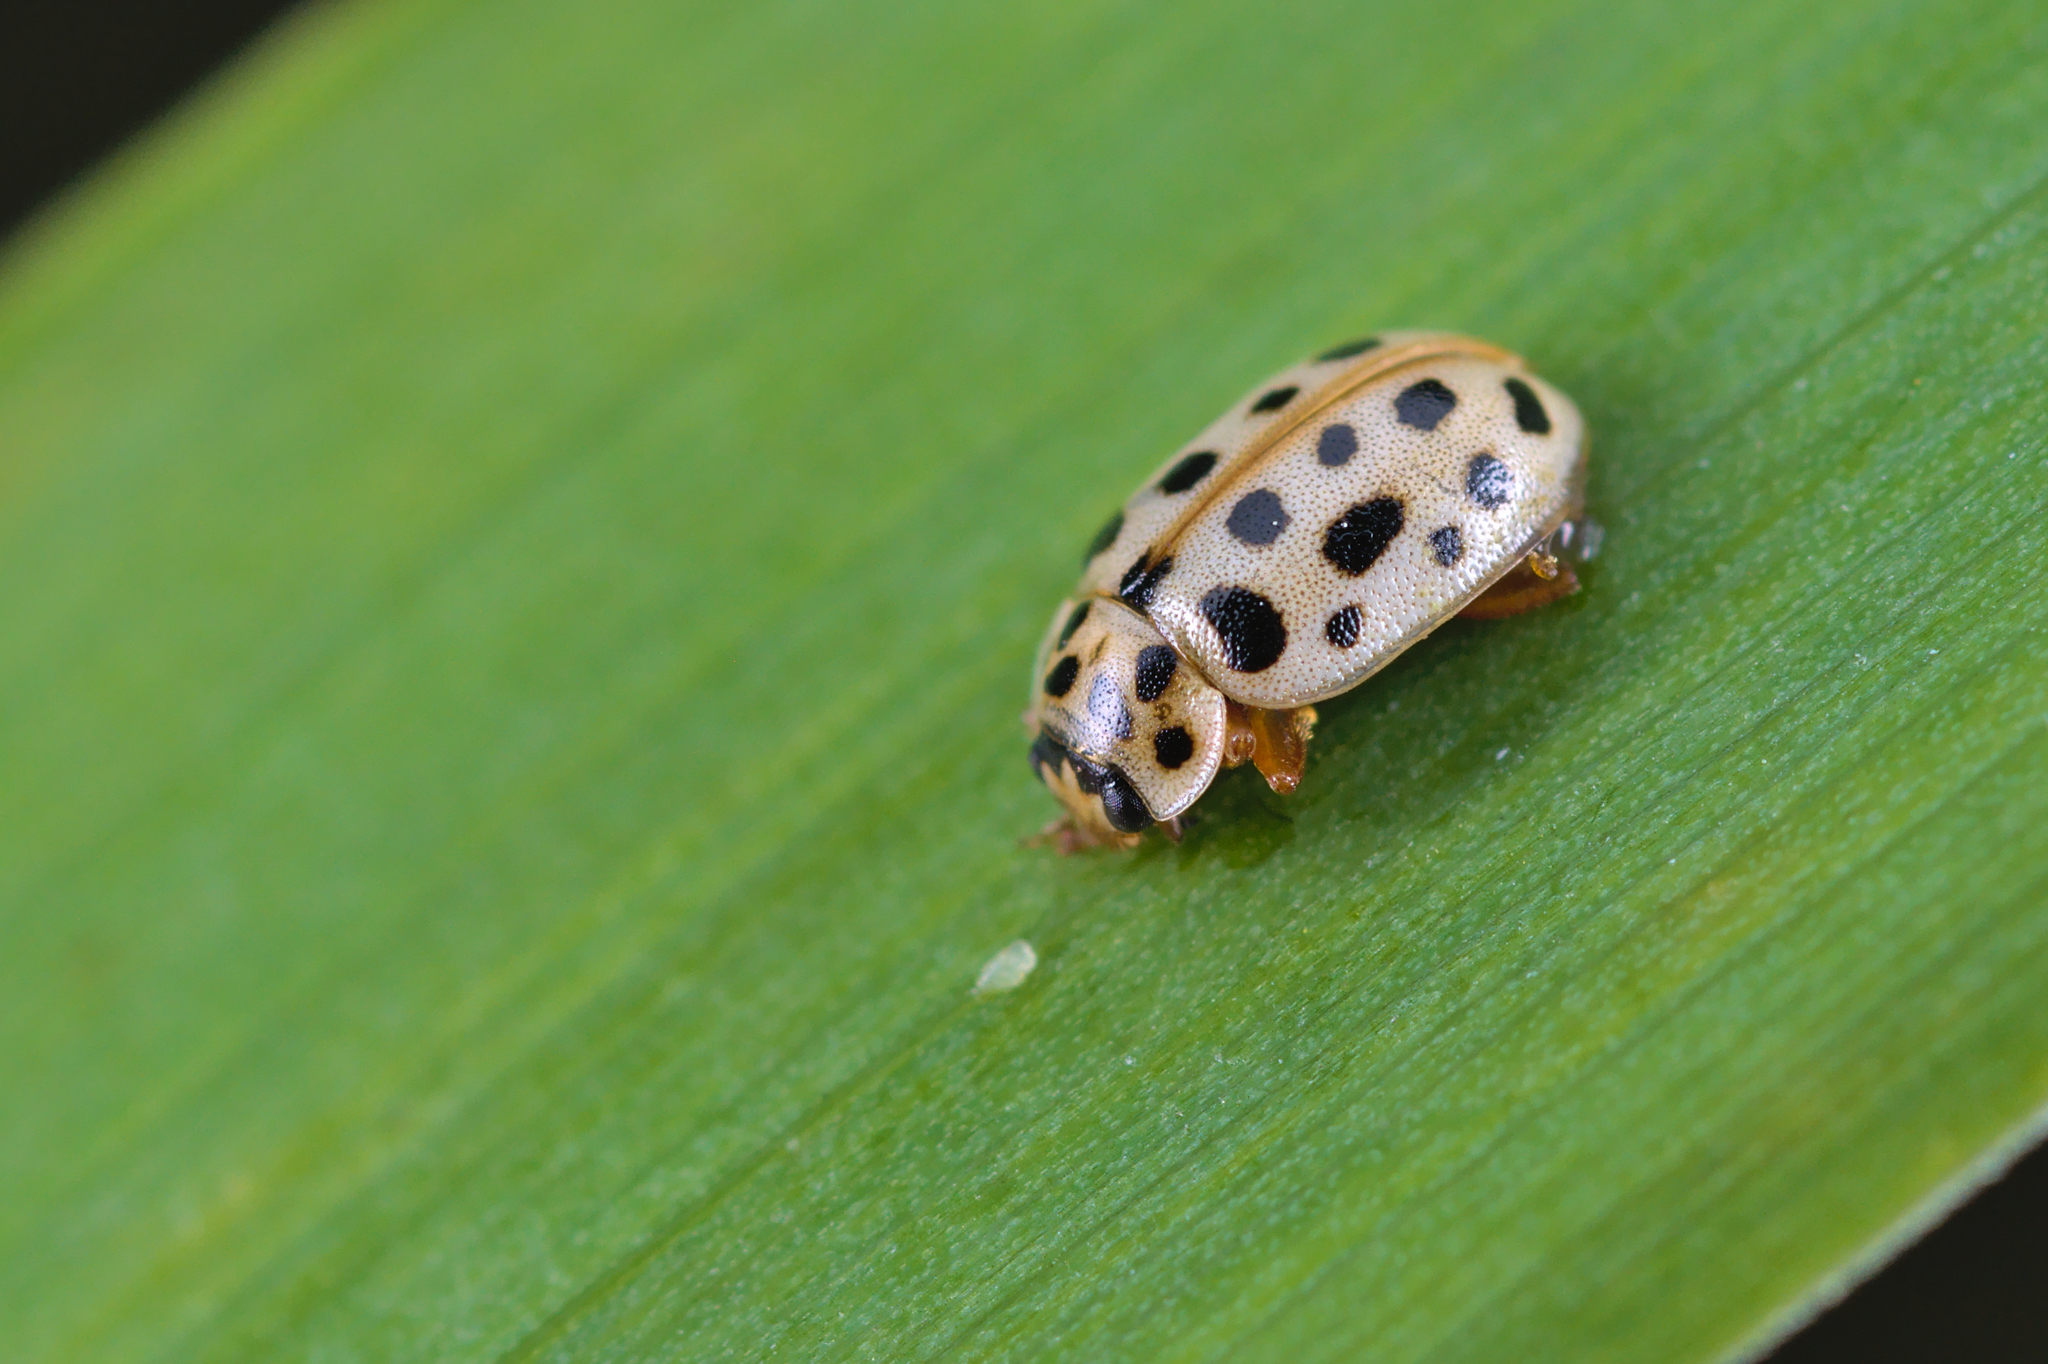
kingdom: Animalia
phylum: Arthropoda
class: Insecta
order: Coleoptera
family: Coccinellidae
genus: Anisosticta
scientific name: Anisosticta novemdecimpunctata
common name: Water ladybird
